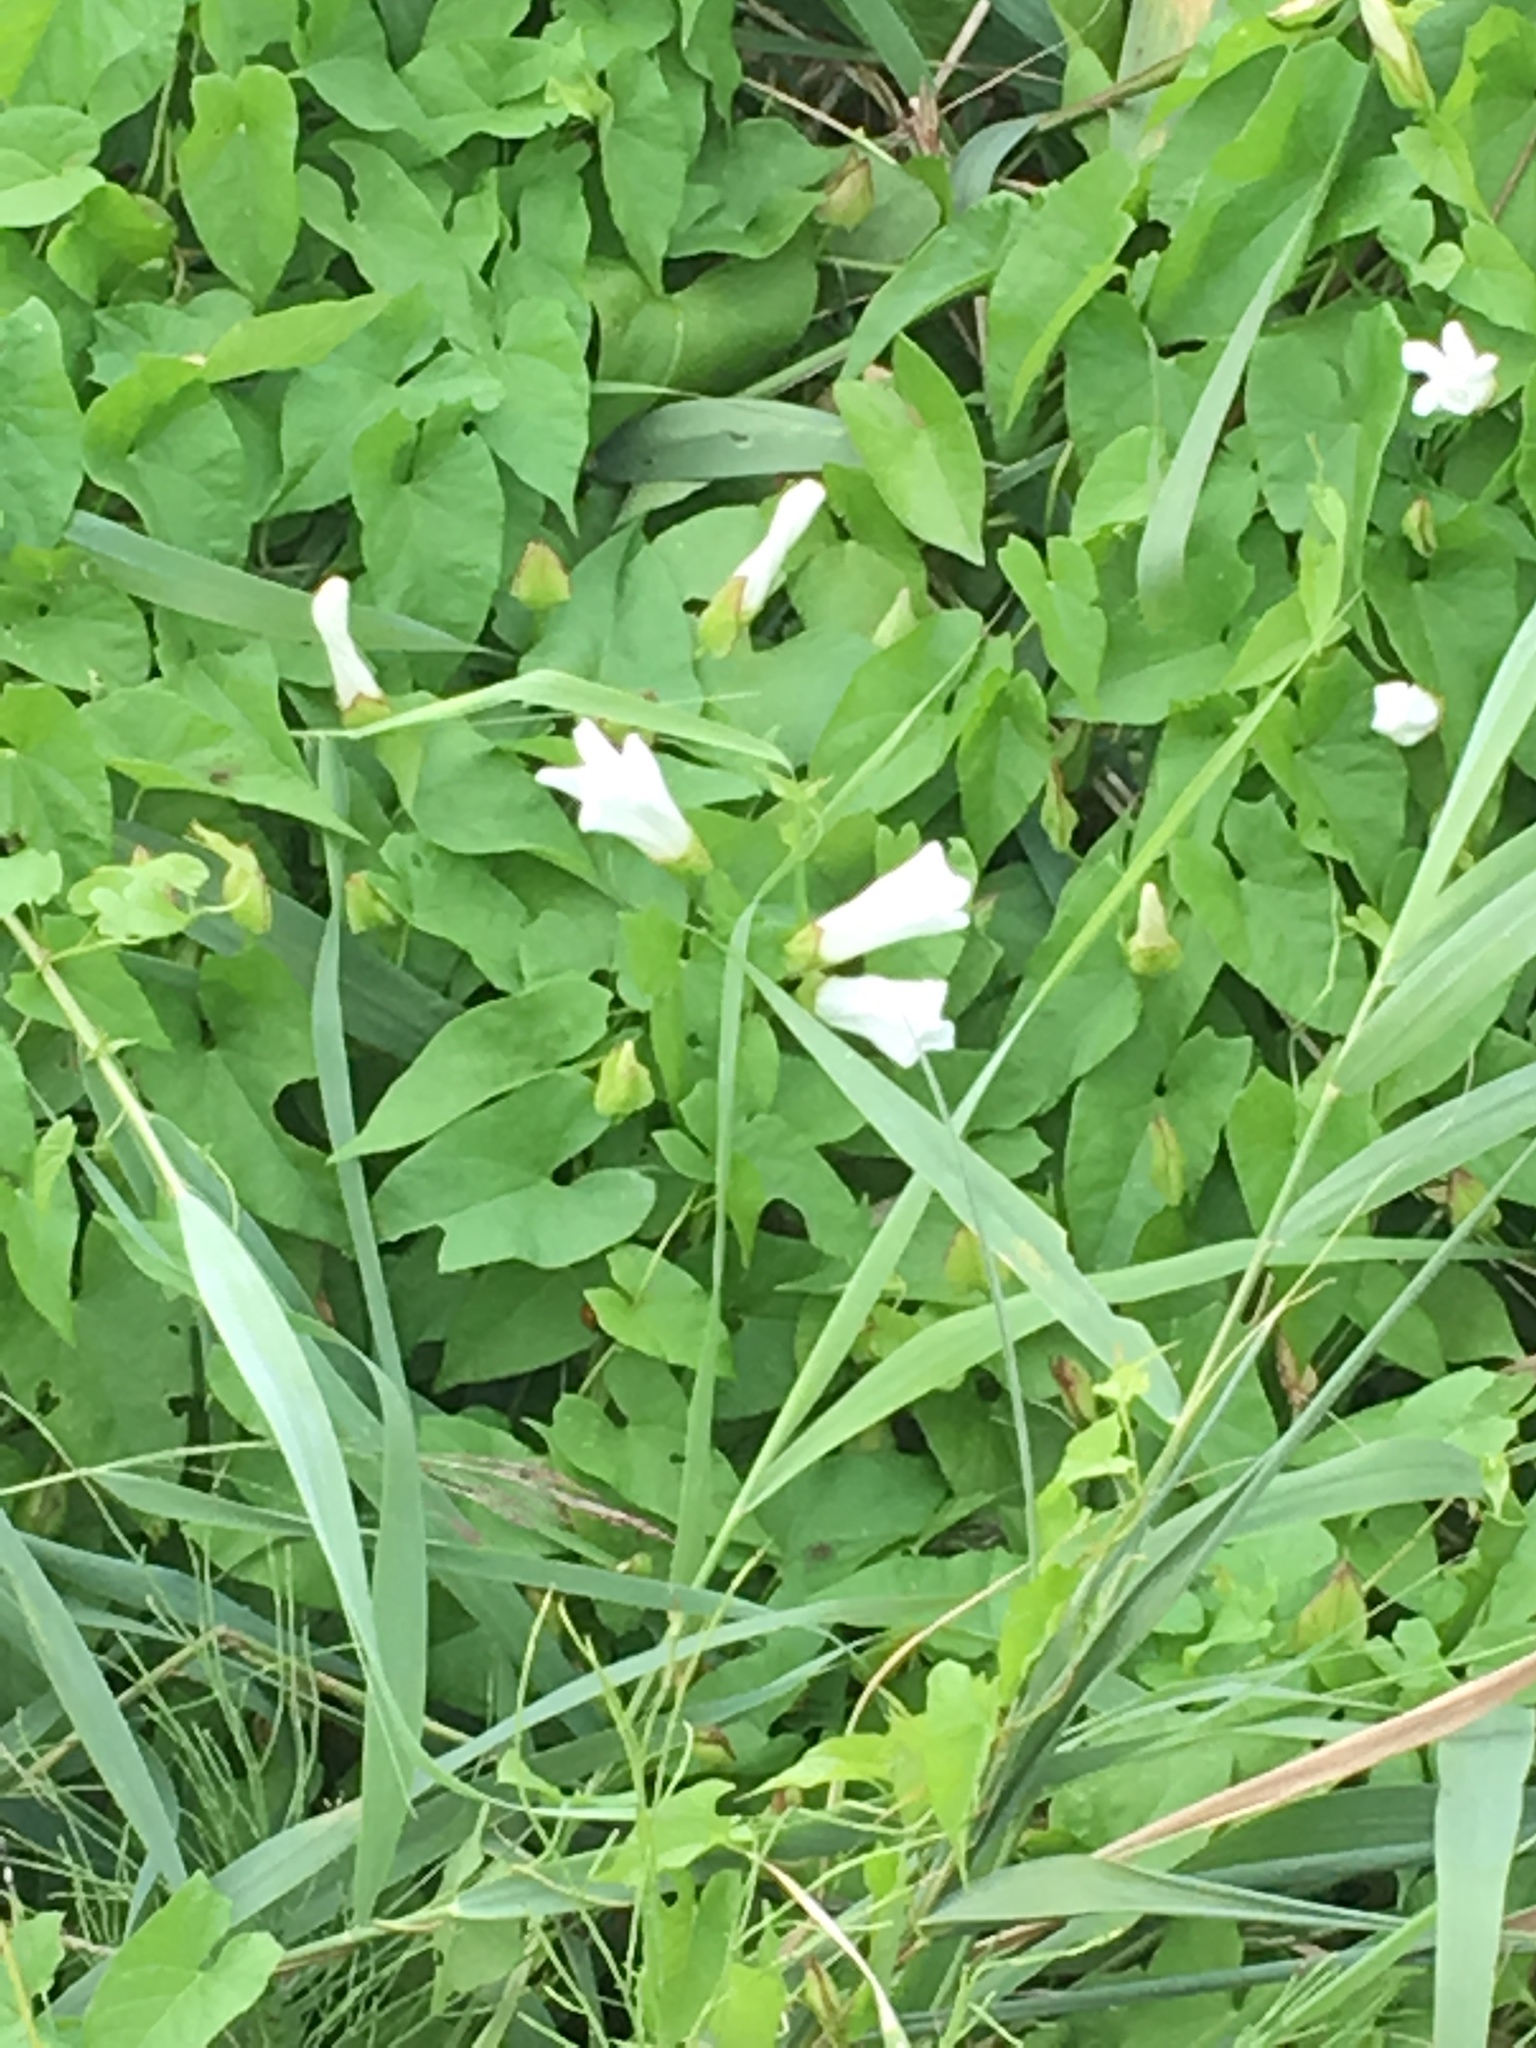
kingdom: Plantae
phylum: Tracheophyta
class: Magnoliopsida
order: Solanales
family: Convolvulaceae
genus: Calystegia
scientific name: Calystegia sepium
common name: Hedge bindweed
